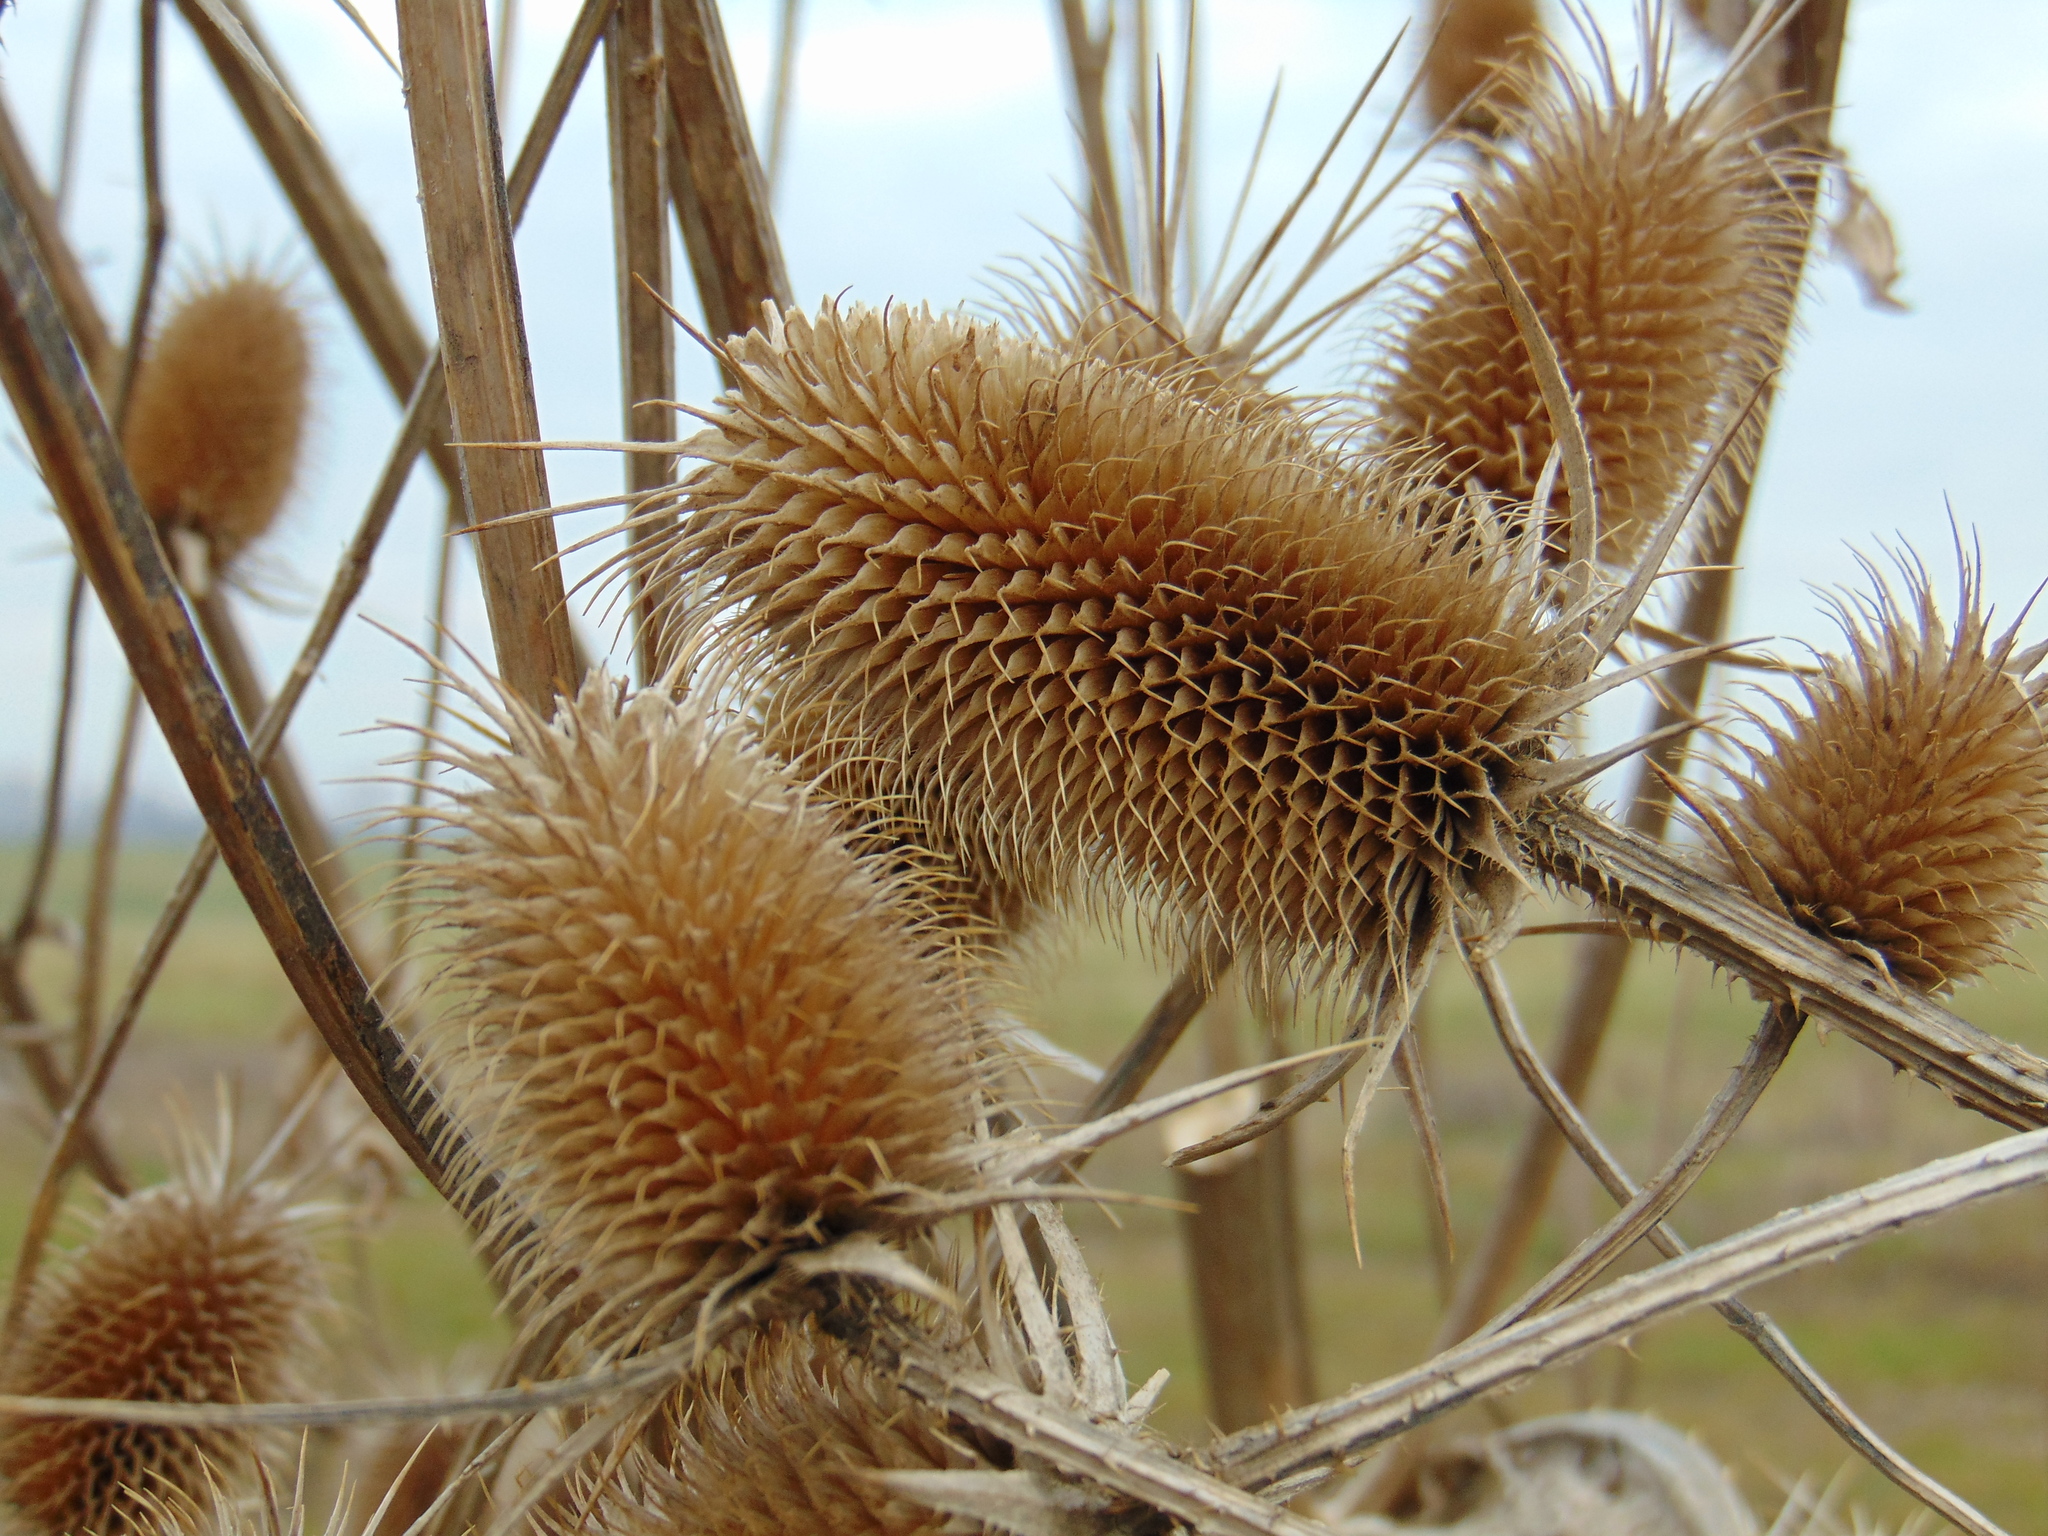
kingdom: Plantae
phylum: Tracheophyta
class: Magnoliopsida
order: Dipsacales
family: Caprifoliaceae
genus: Dipsacus
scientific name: Dipsacus laciniatus
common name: Cut-leaved teasel
